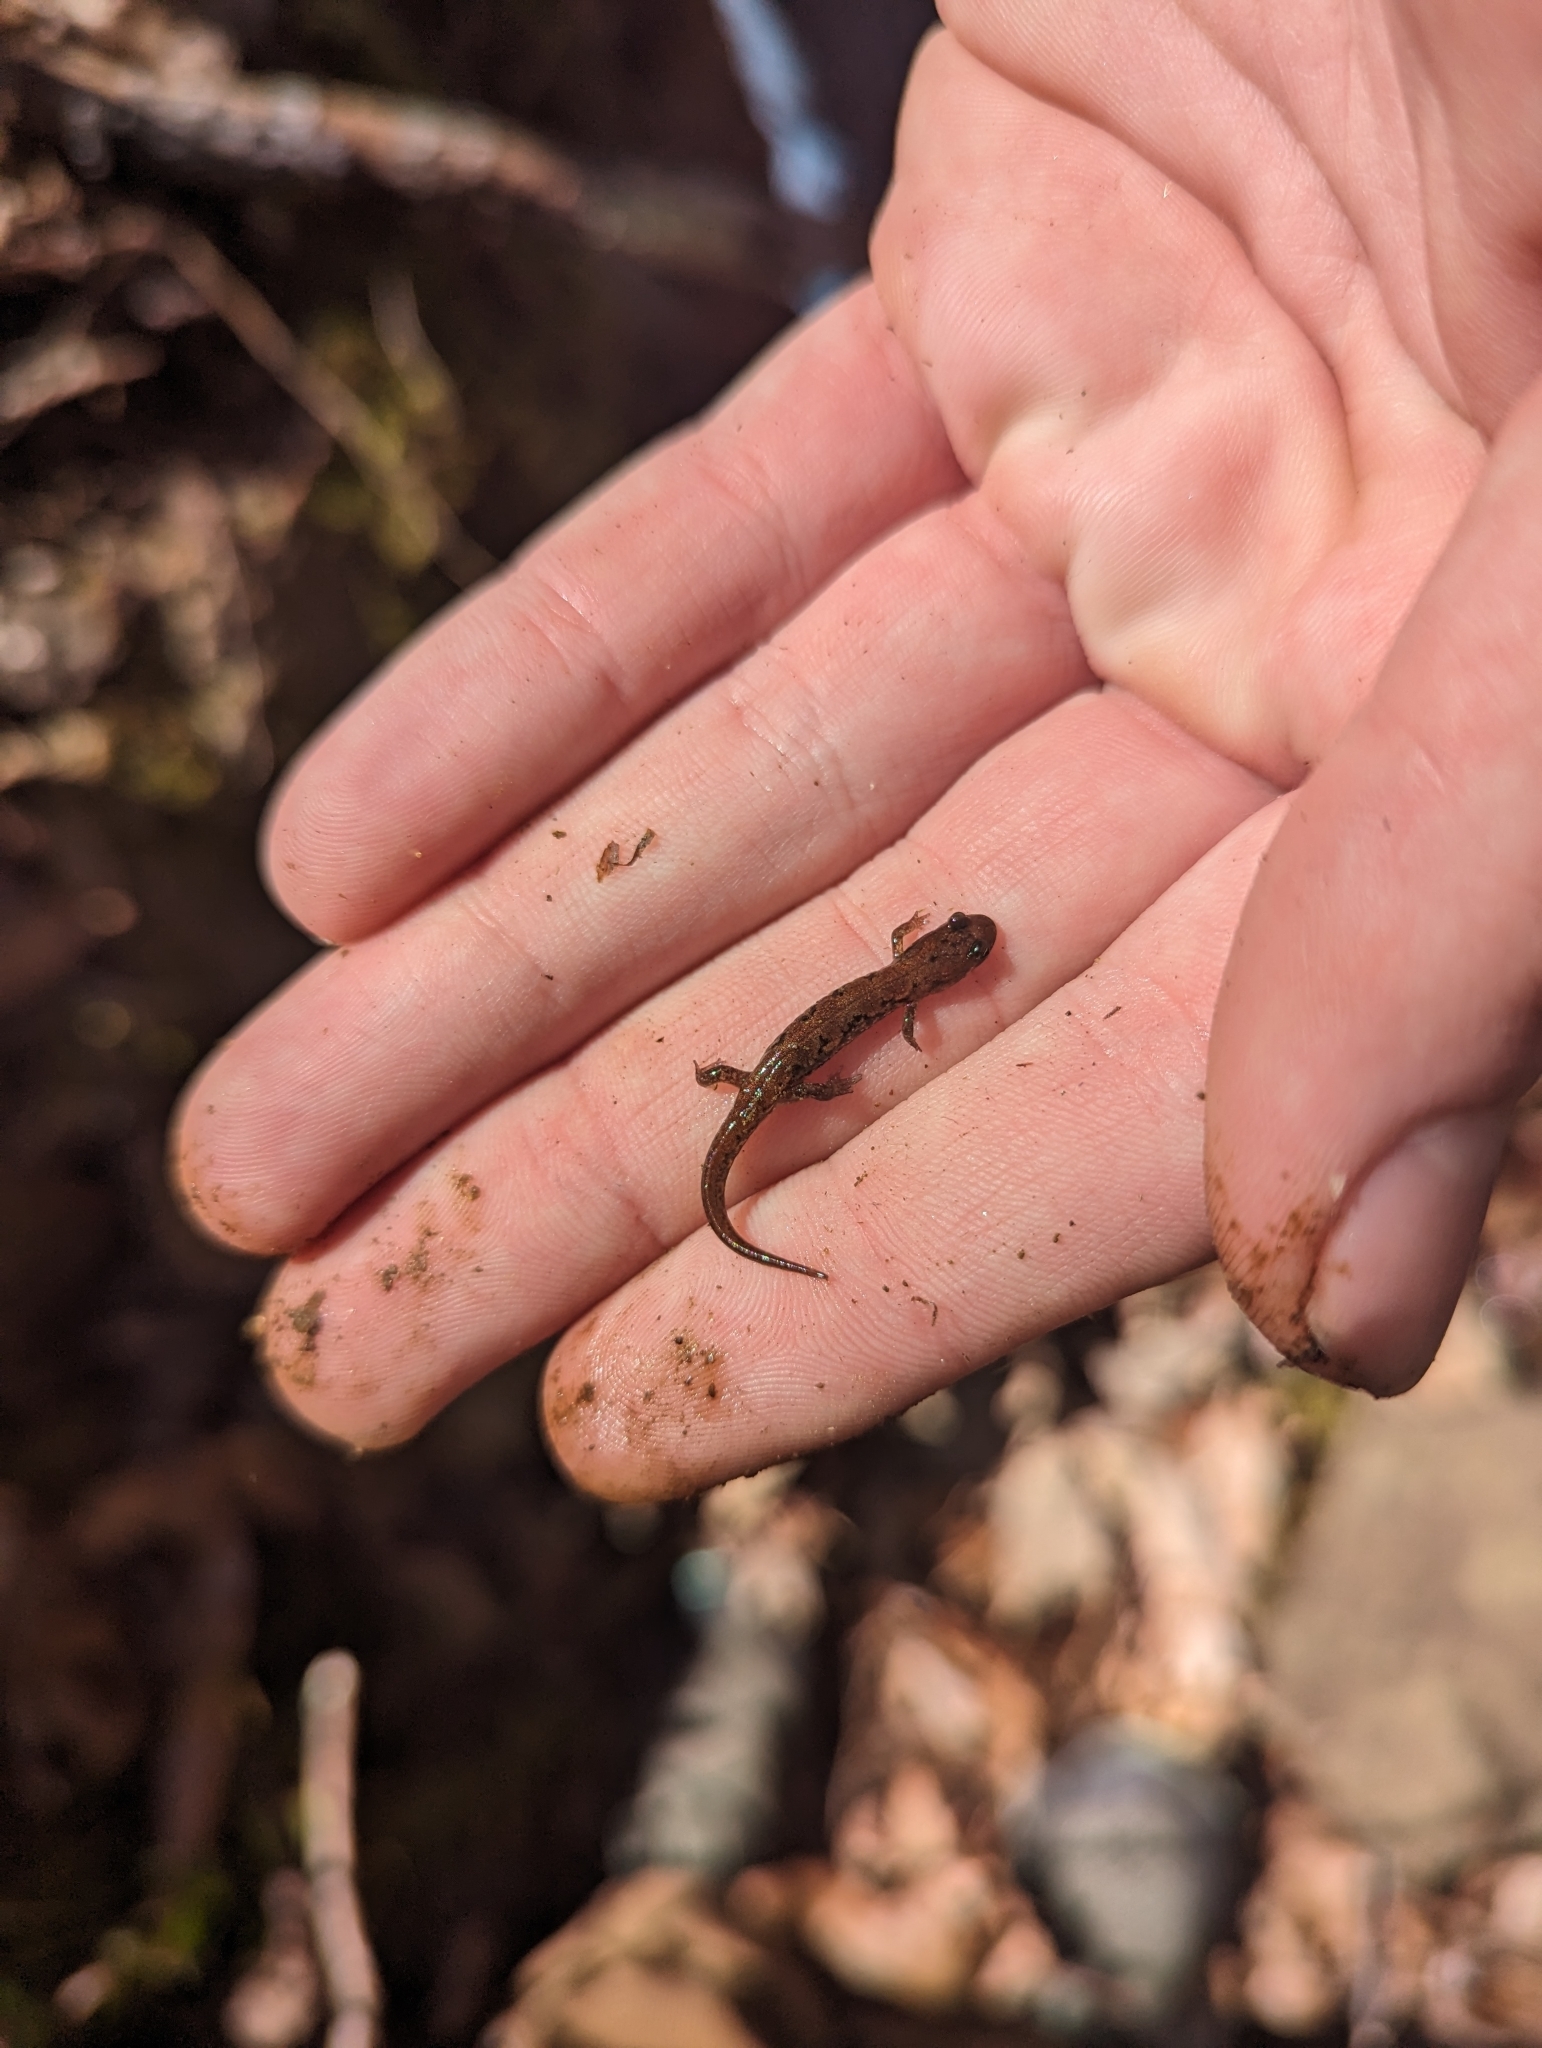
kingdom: Animalia
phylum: Chordata
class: Amphibia
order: Caudata
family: Plethodontidae
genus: Desmognathus
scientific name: Desmognathus carolinensis
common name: Carolina mountain dusky salamander
